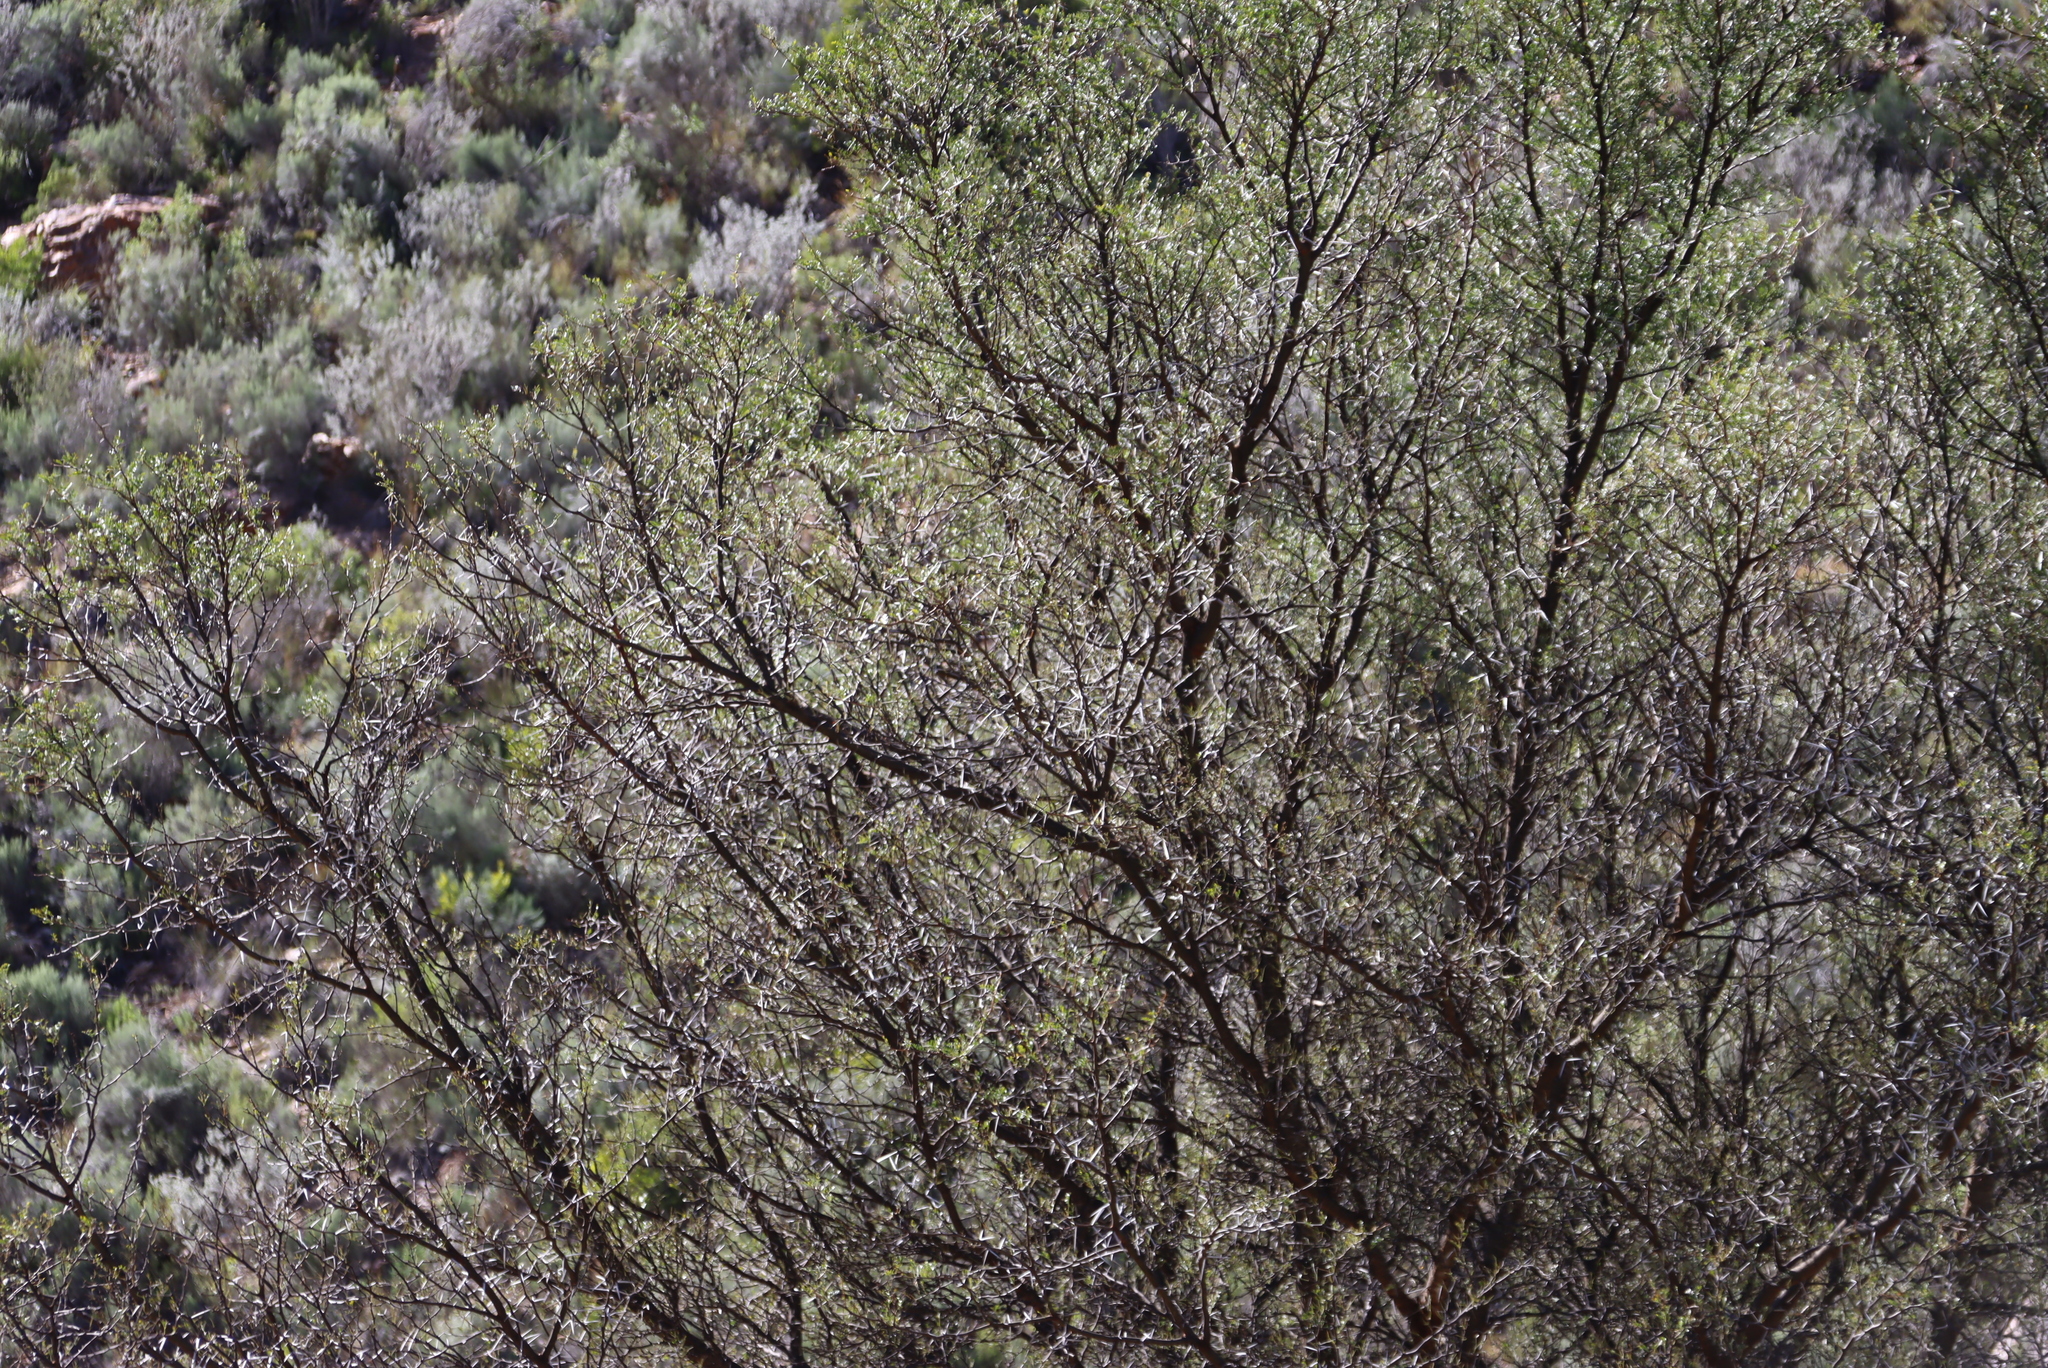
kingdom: Plantae
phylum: Tracheophyta
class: Magnoliopsida
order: Fabales
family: Fabaceae
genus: Vachellia
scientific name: Vachellia karroo
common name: Sweet thorn
